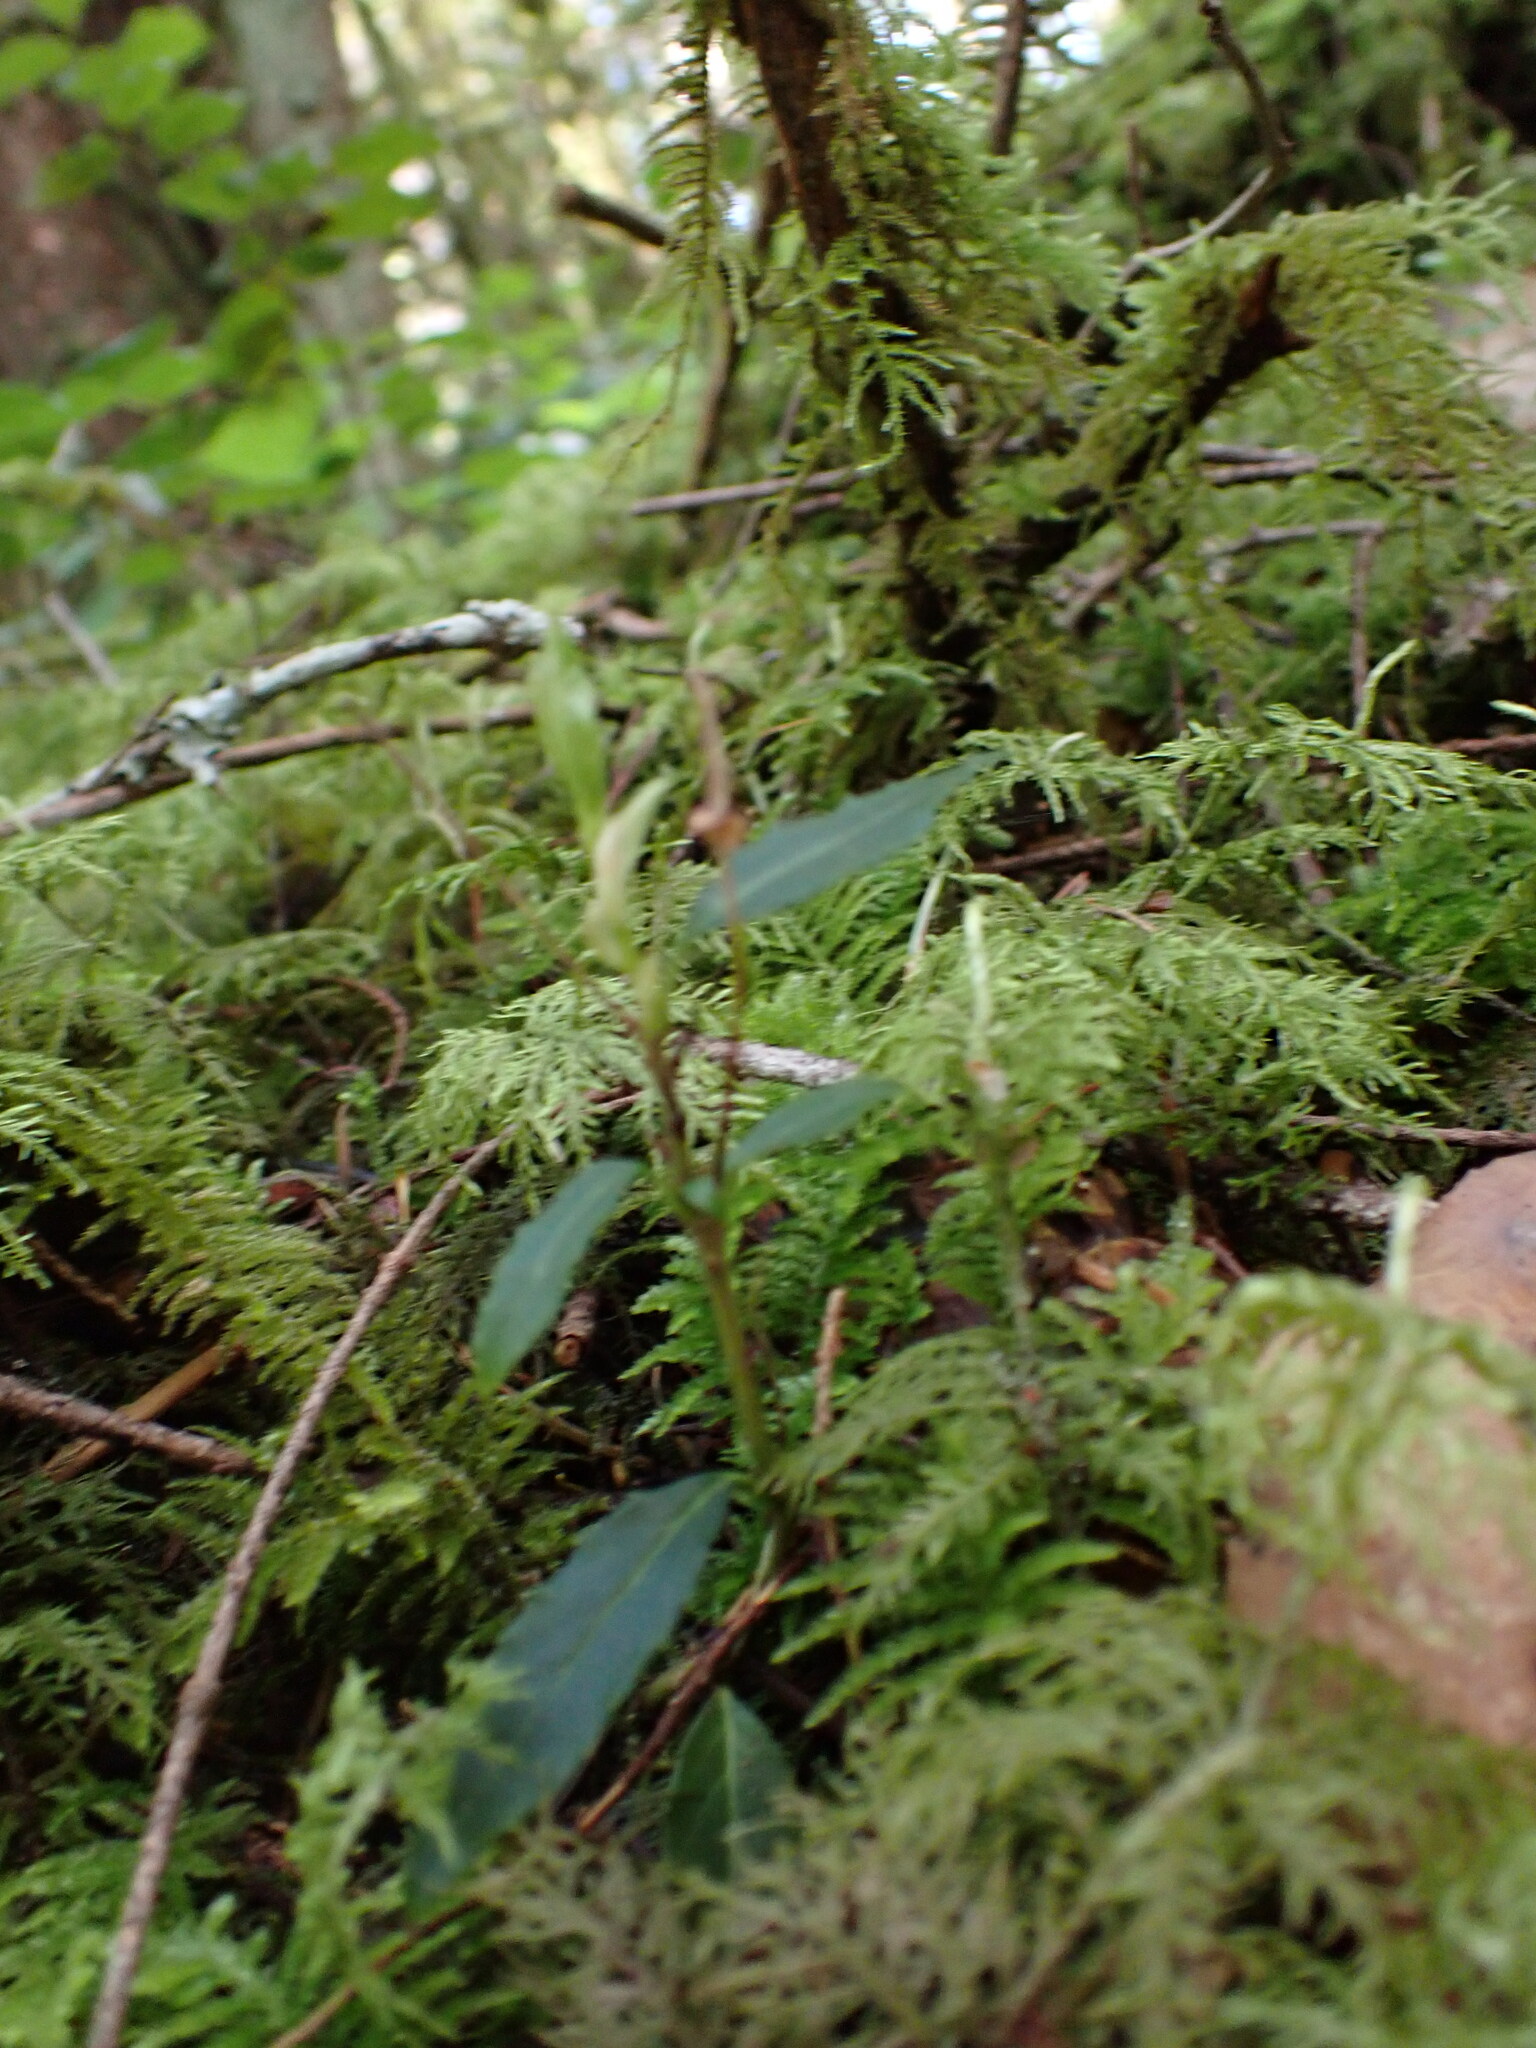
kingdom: Plantae
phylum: Tracheophyta
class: Magnoliopsida
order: Ericales
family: Ericaceae
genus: Chimaphila
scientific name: Chimaphila menziesii
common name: Menzies' pipsissewa
